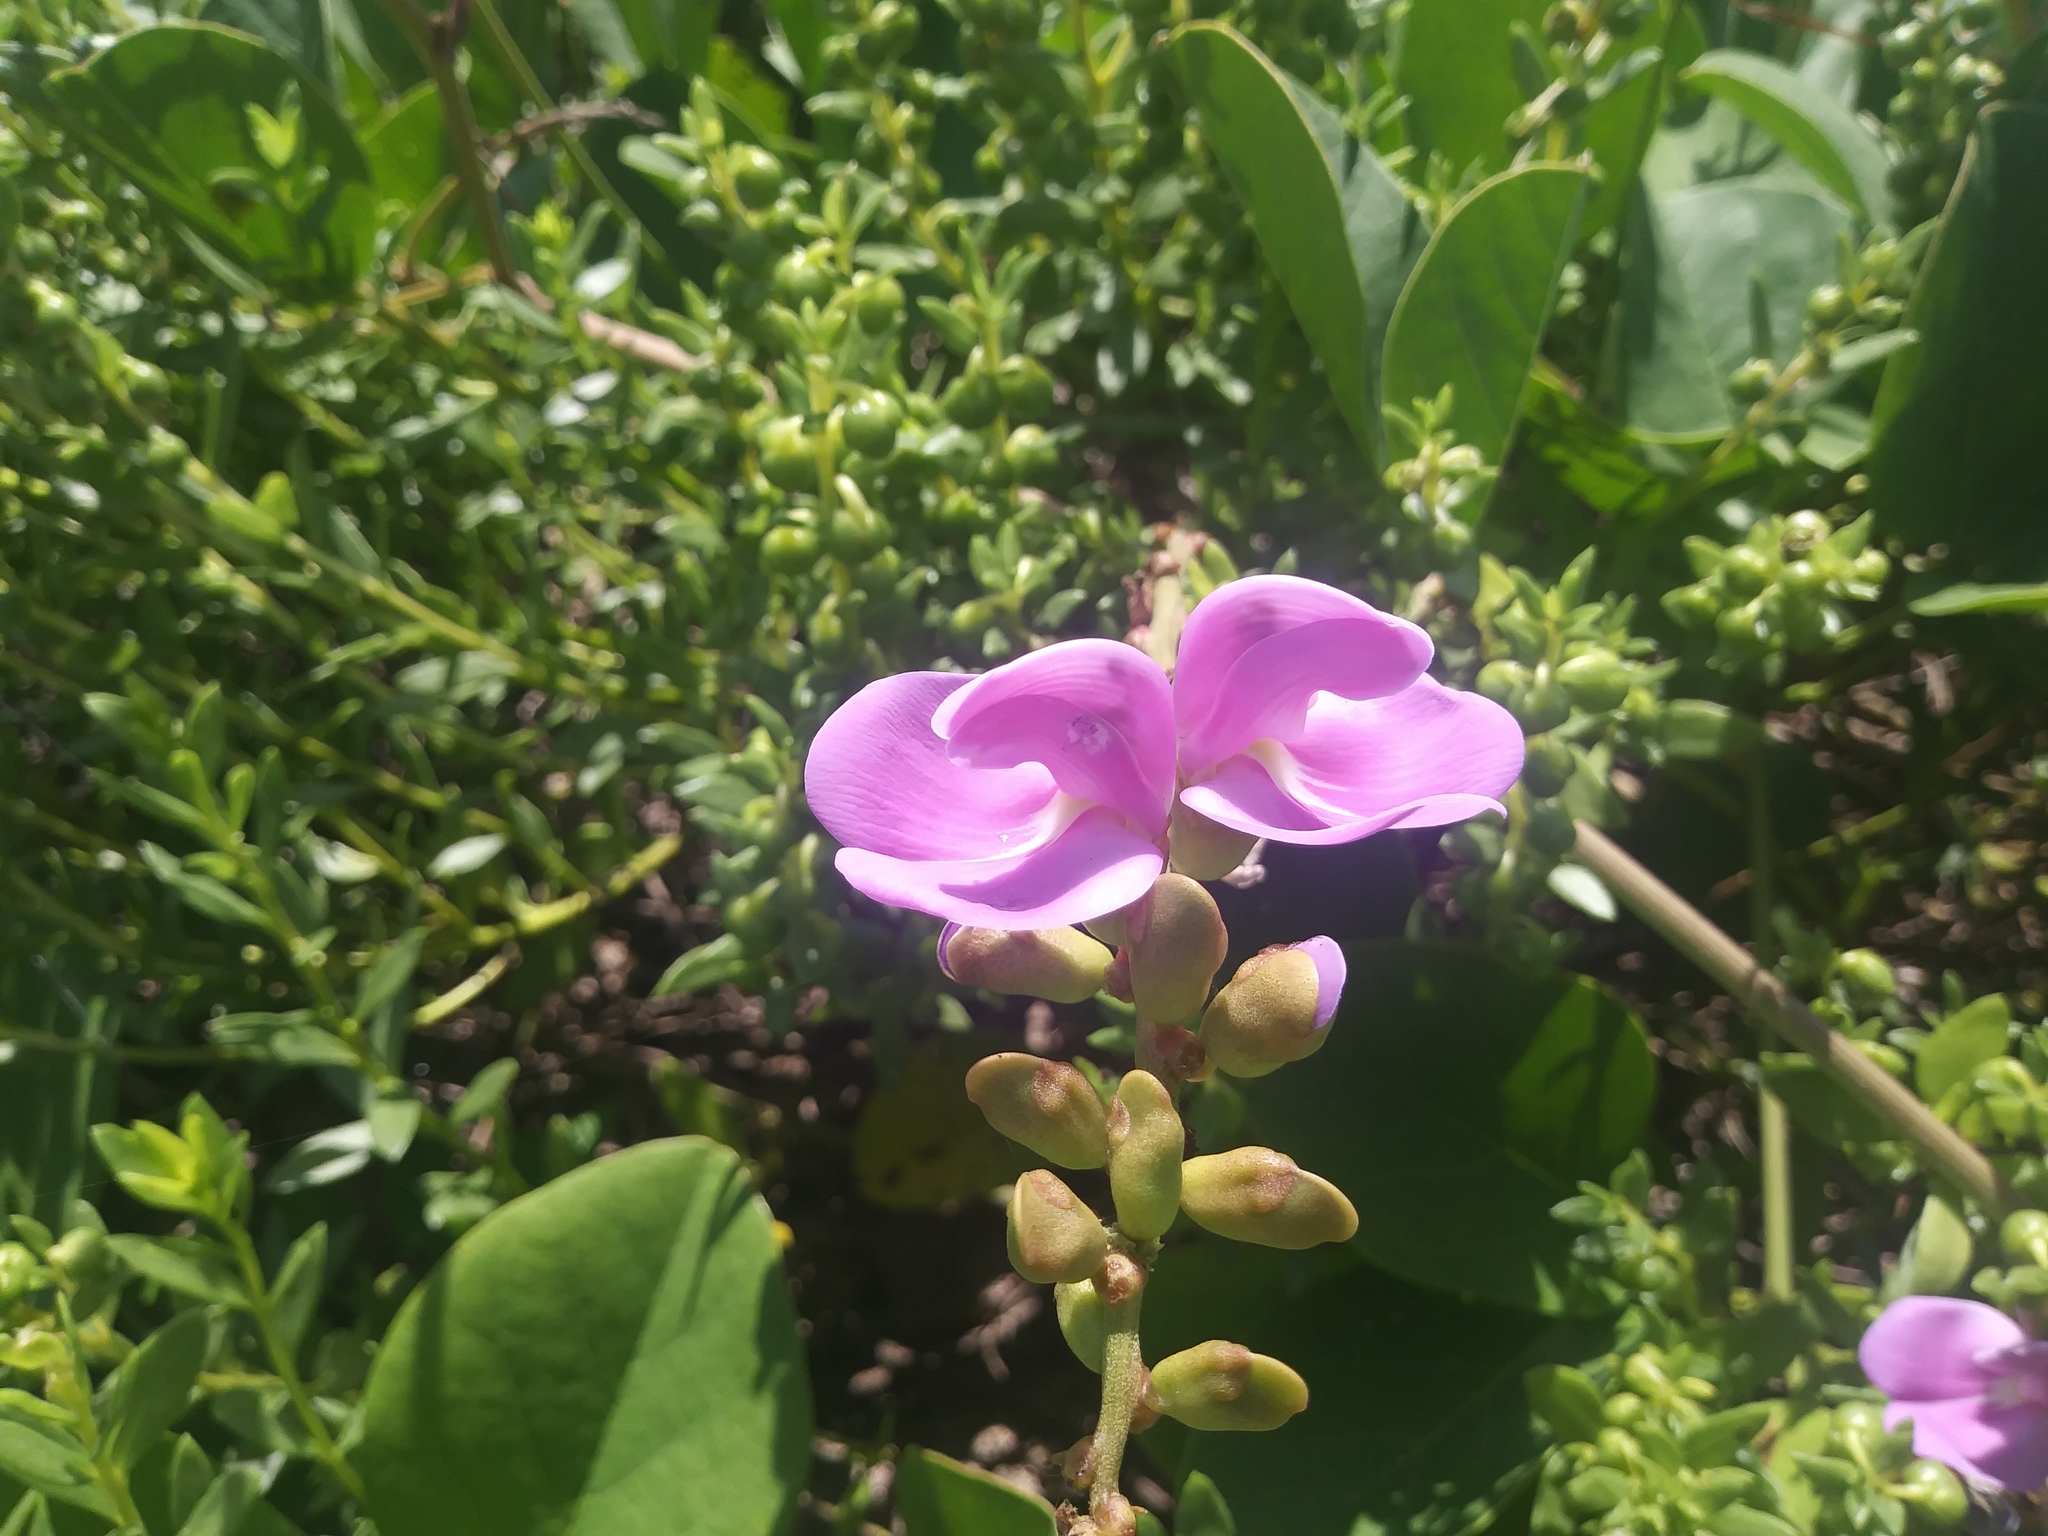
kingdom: Plantae
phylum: Tracheophyta
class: Magnoliopsida
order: Fabales
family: Fabaceae
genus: Canavalia
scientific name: Canavalia rosea
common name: Beach-bean
